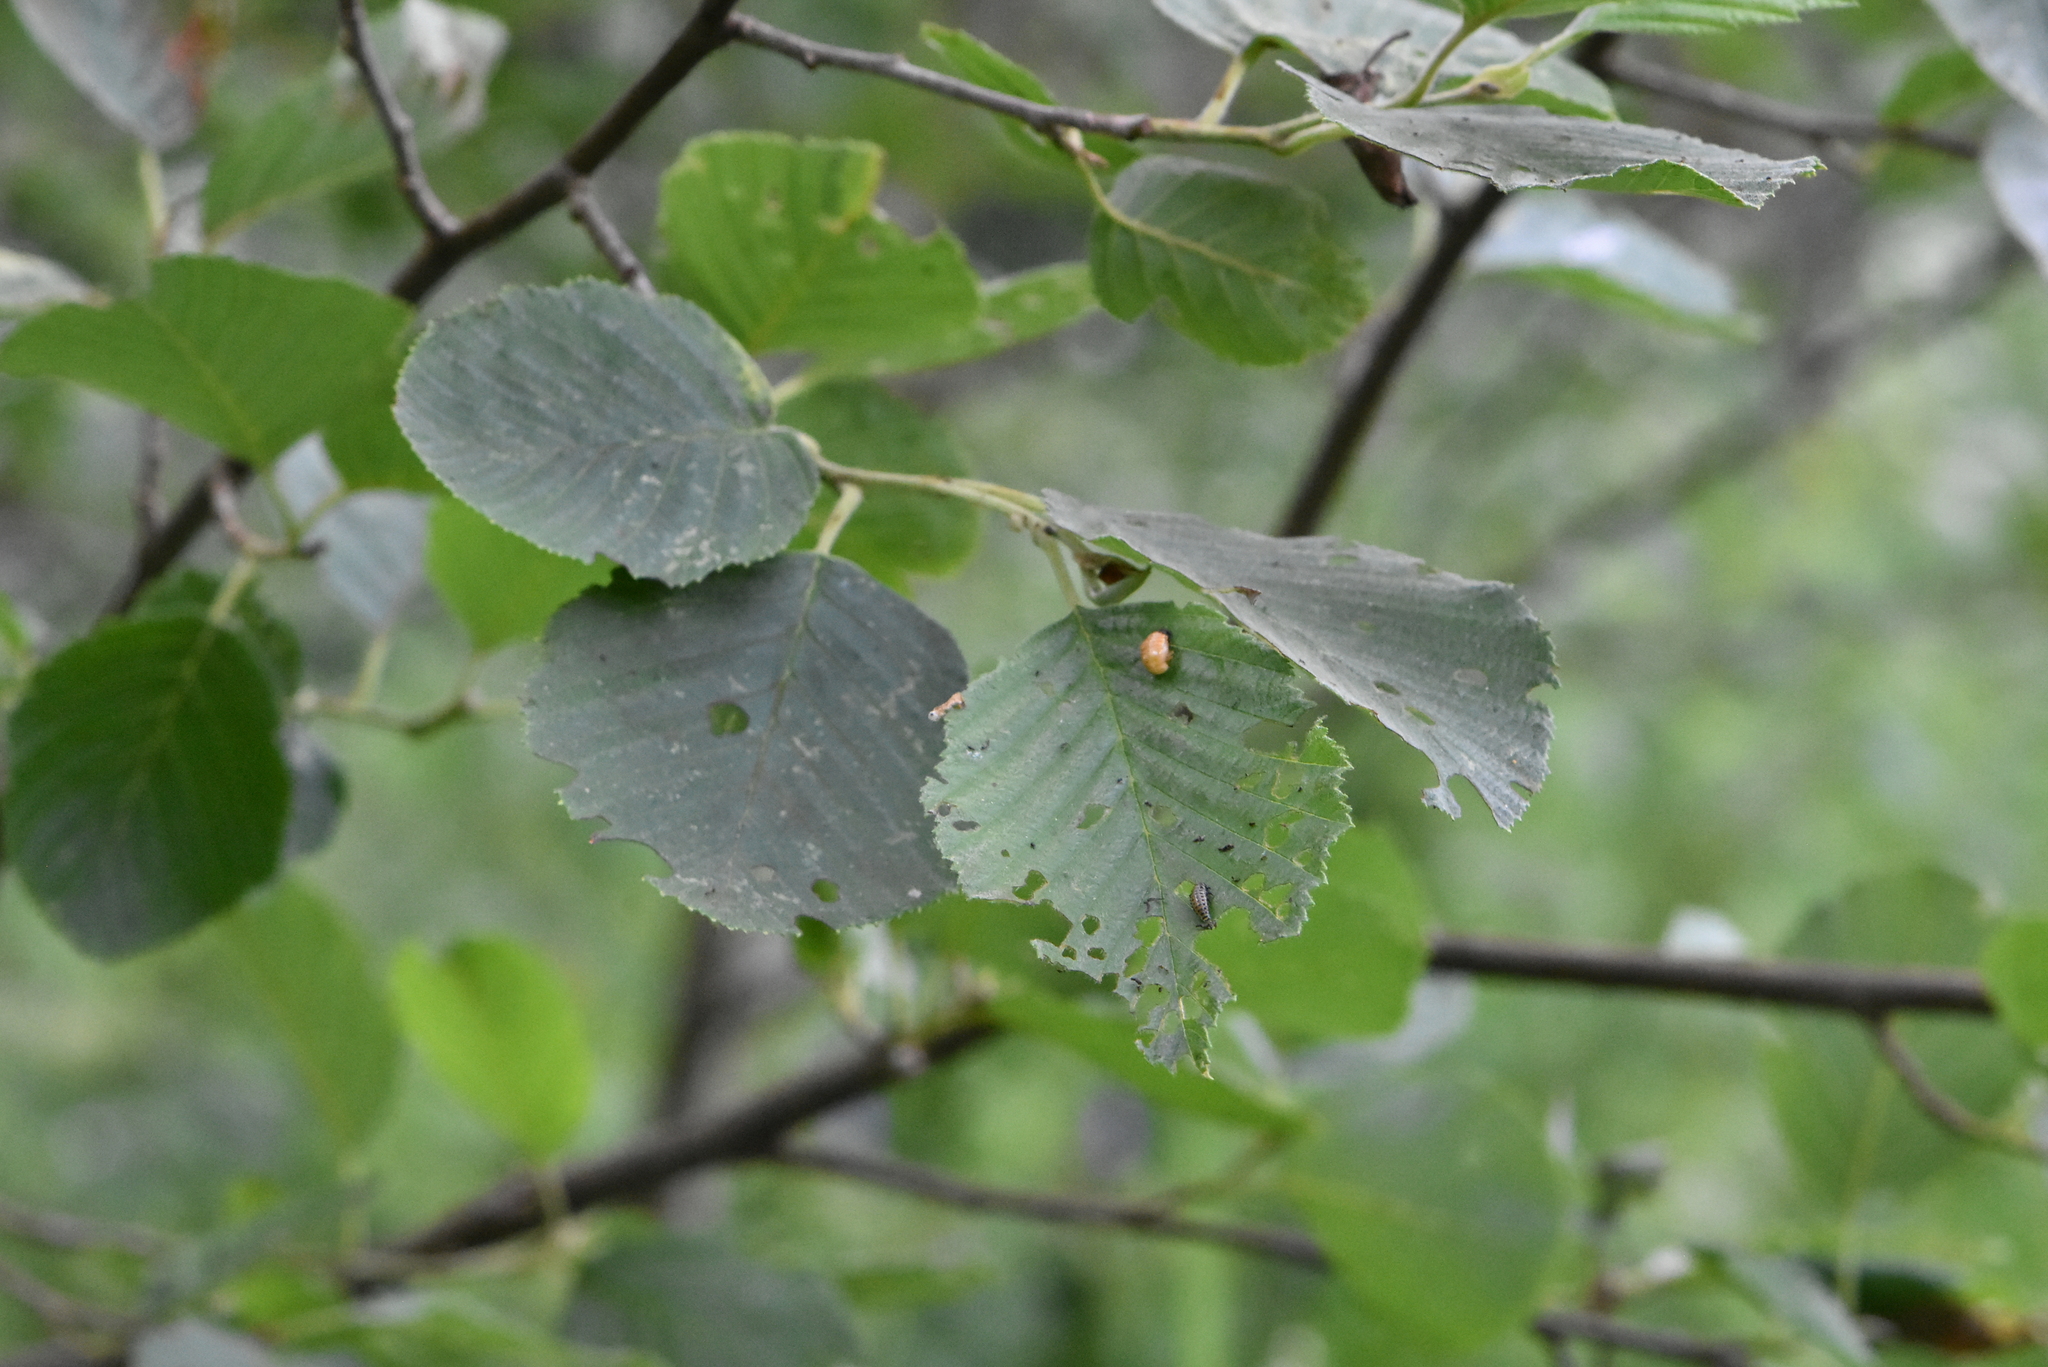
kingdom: Plantae
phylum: Tracheophyta
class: Magnoliopsida
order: Fagales
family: Betulaceae
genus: Alnus
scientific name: Alnus incana
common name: Grey alder
